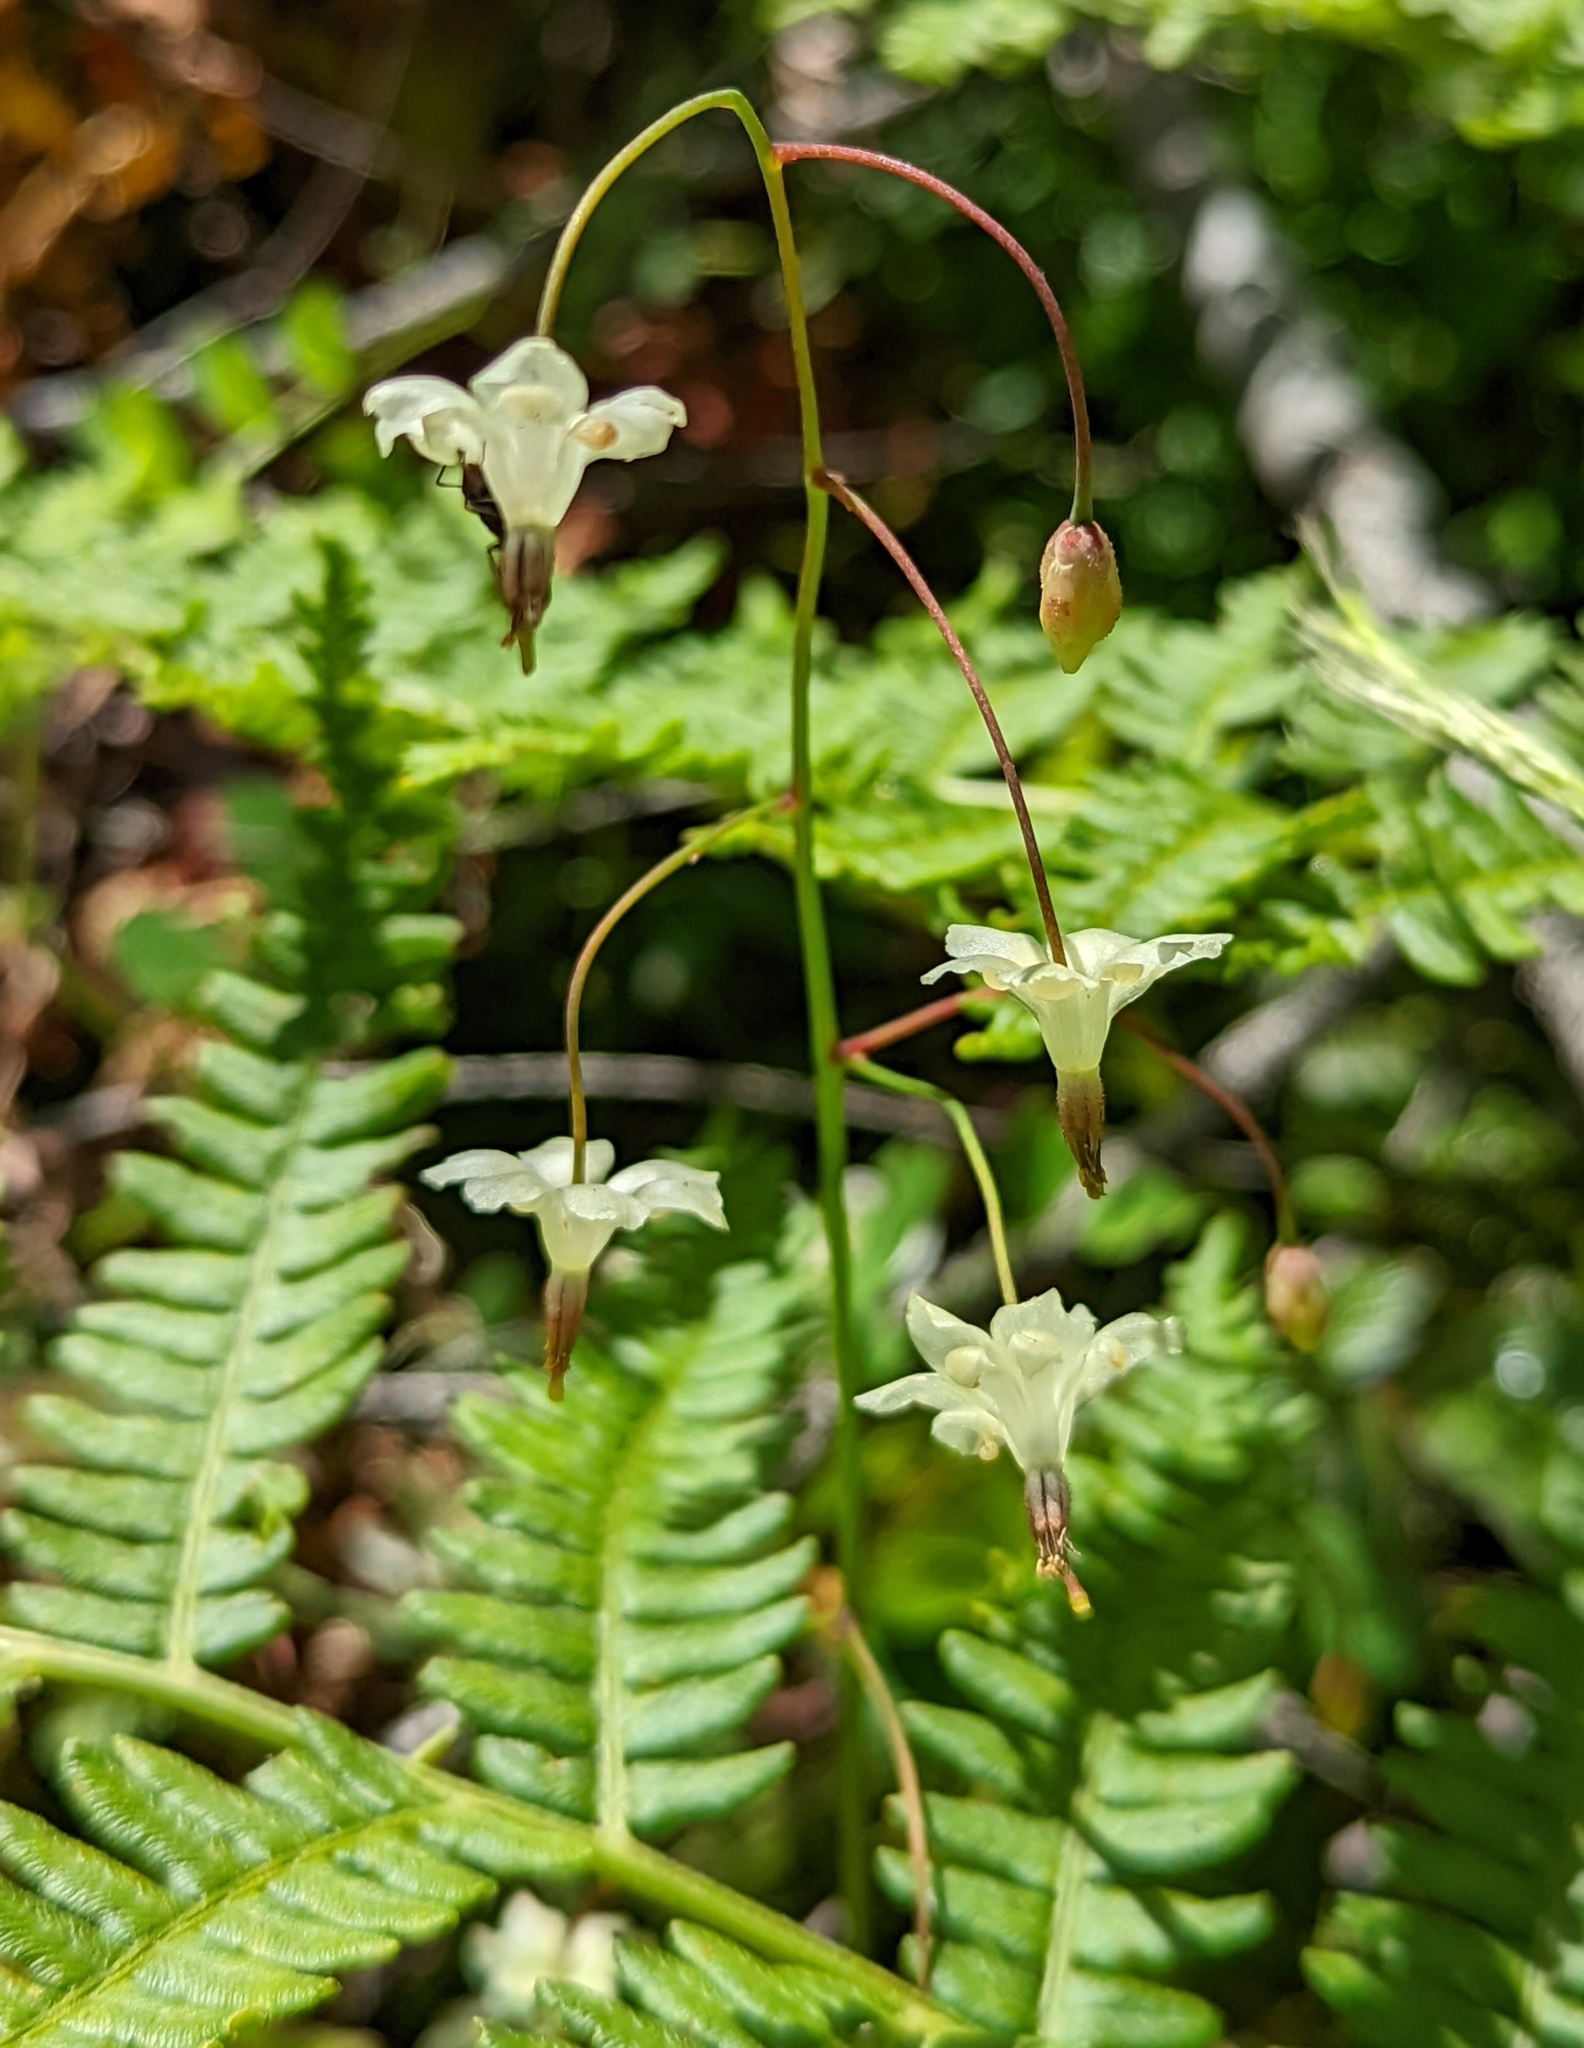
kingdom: Plantae
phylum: Tracheophyta
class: Magnoliopsida
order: Ranunculales
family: Berberidaceae
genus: Vancouveria
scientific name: Vancouveria hexandra
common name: Northern inside-out-flower
